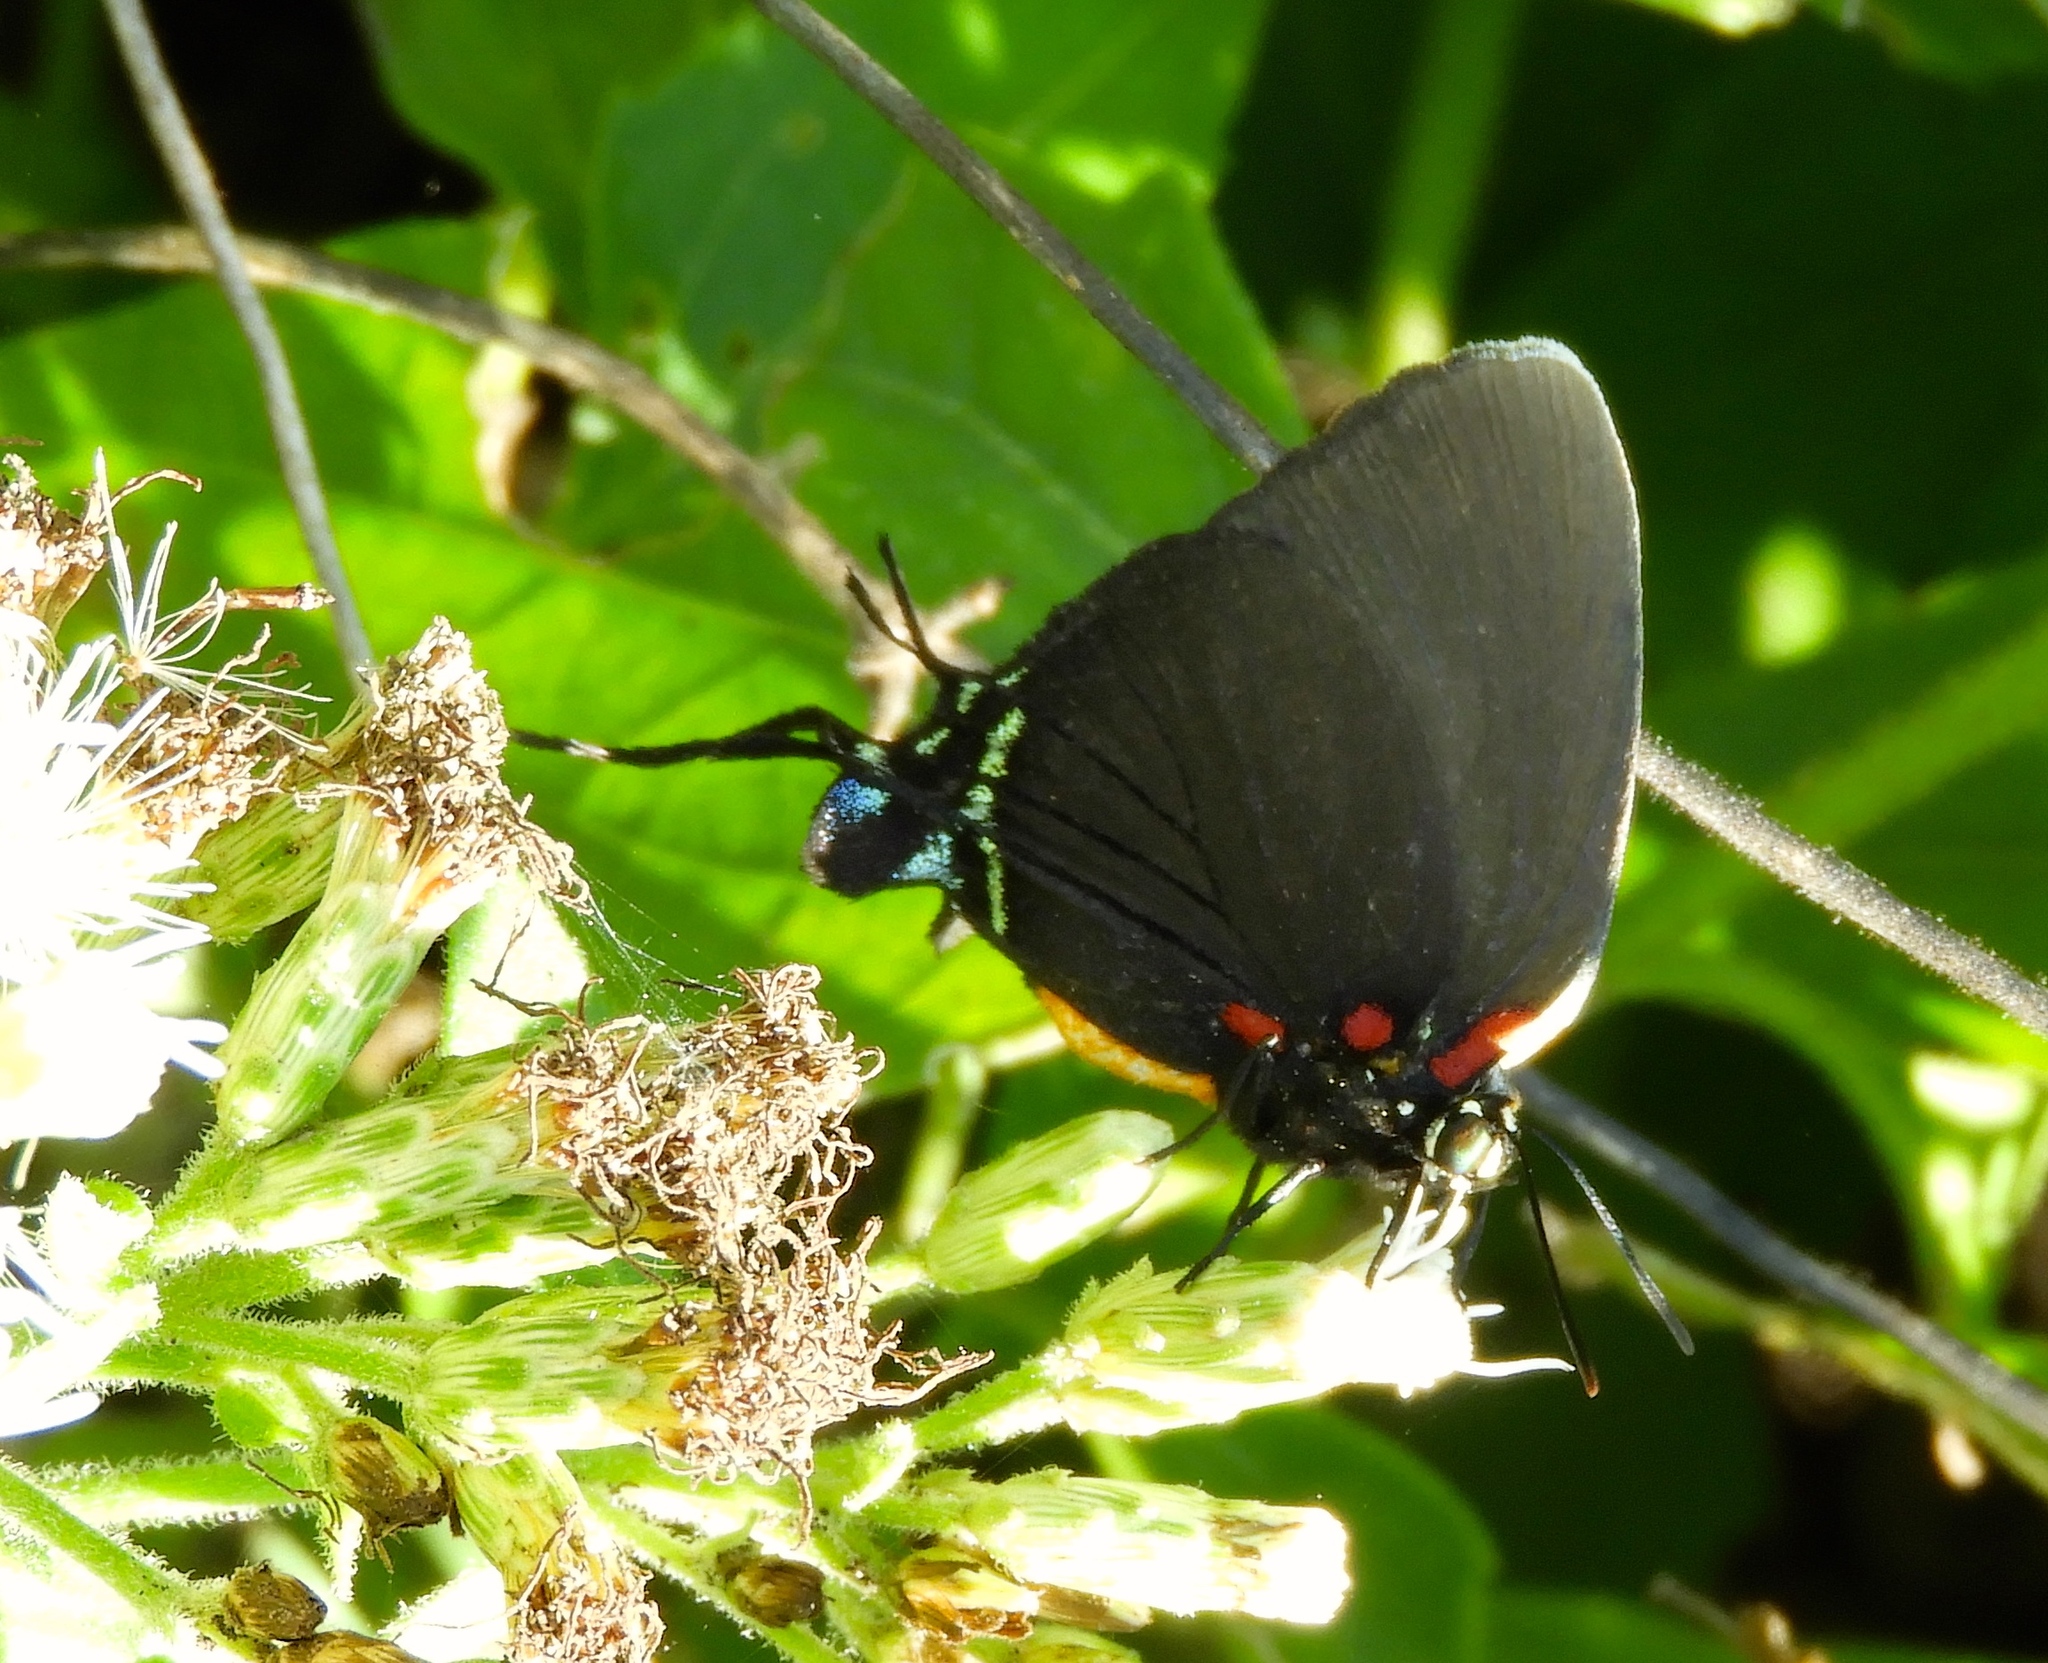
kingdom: Animalia
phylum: Arthropoda
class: Insecta
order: Lepidoptera
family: Lycaenidae
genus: Atlides
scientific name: Atlides halesus
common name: Great purple hairstreak
